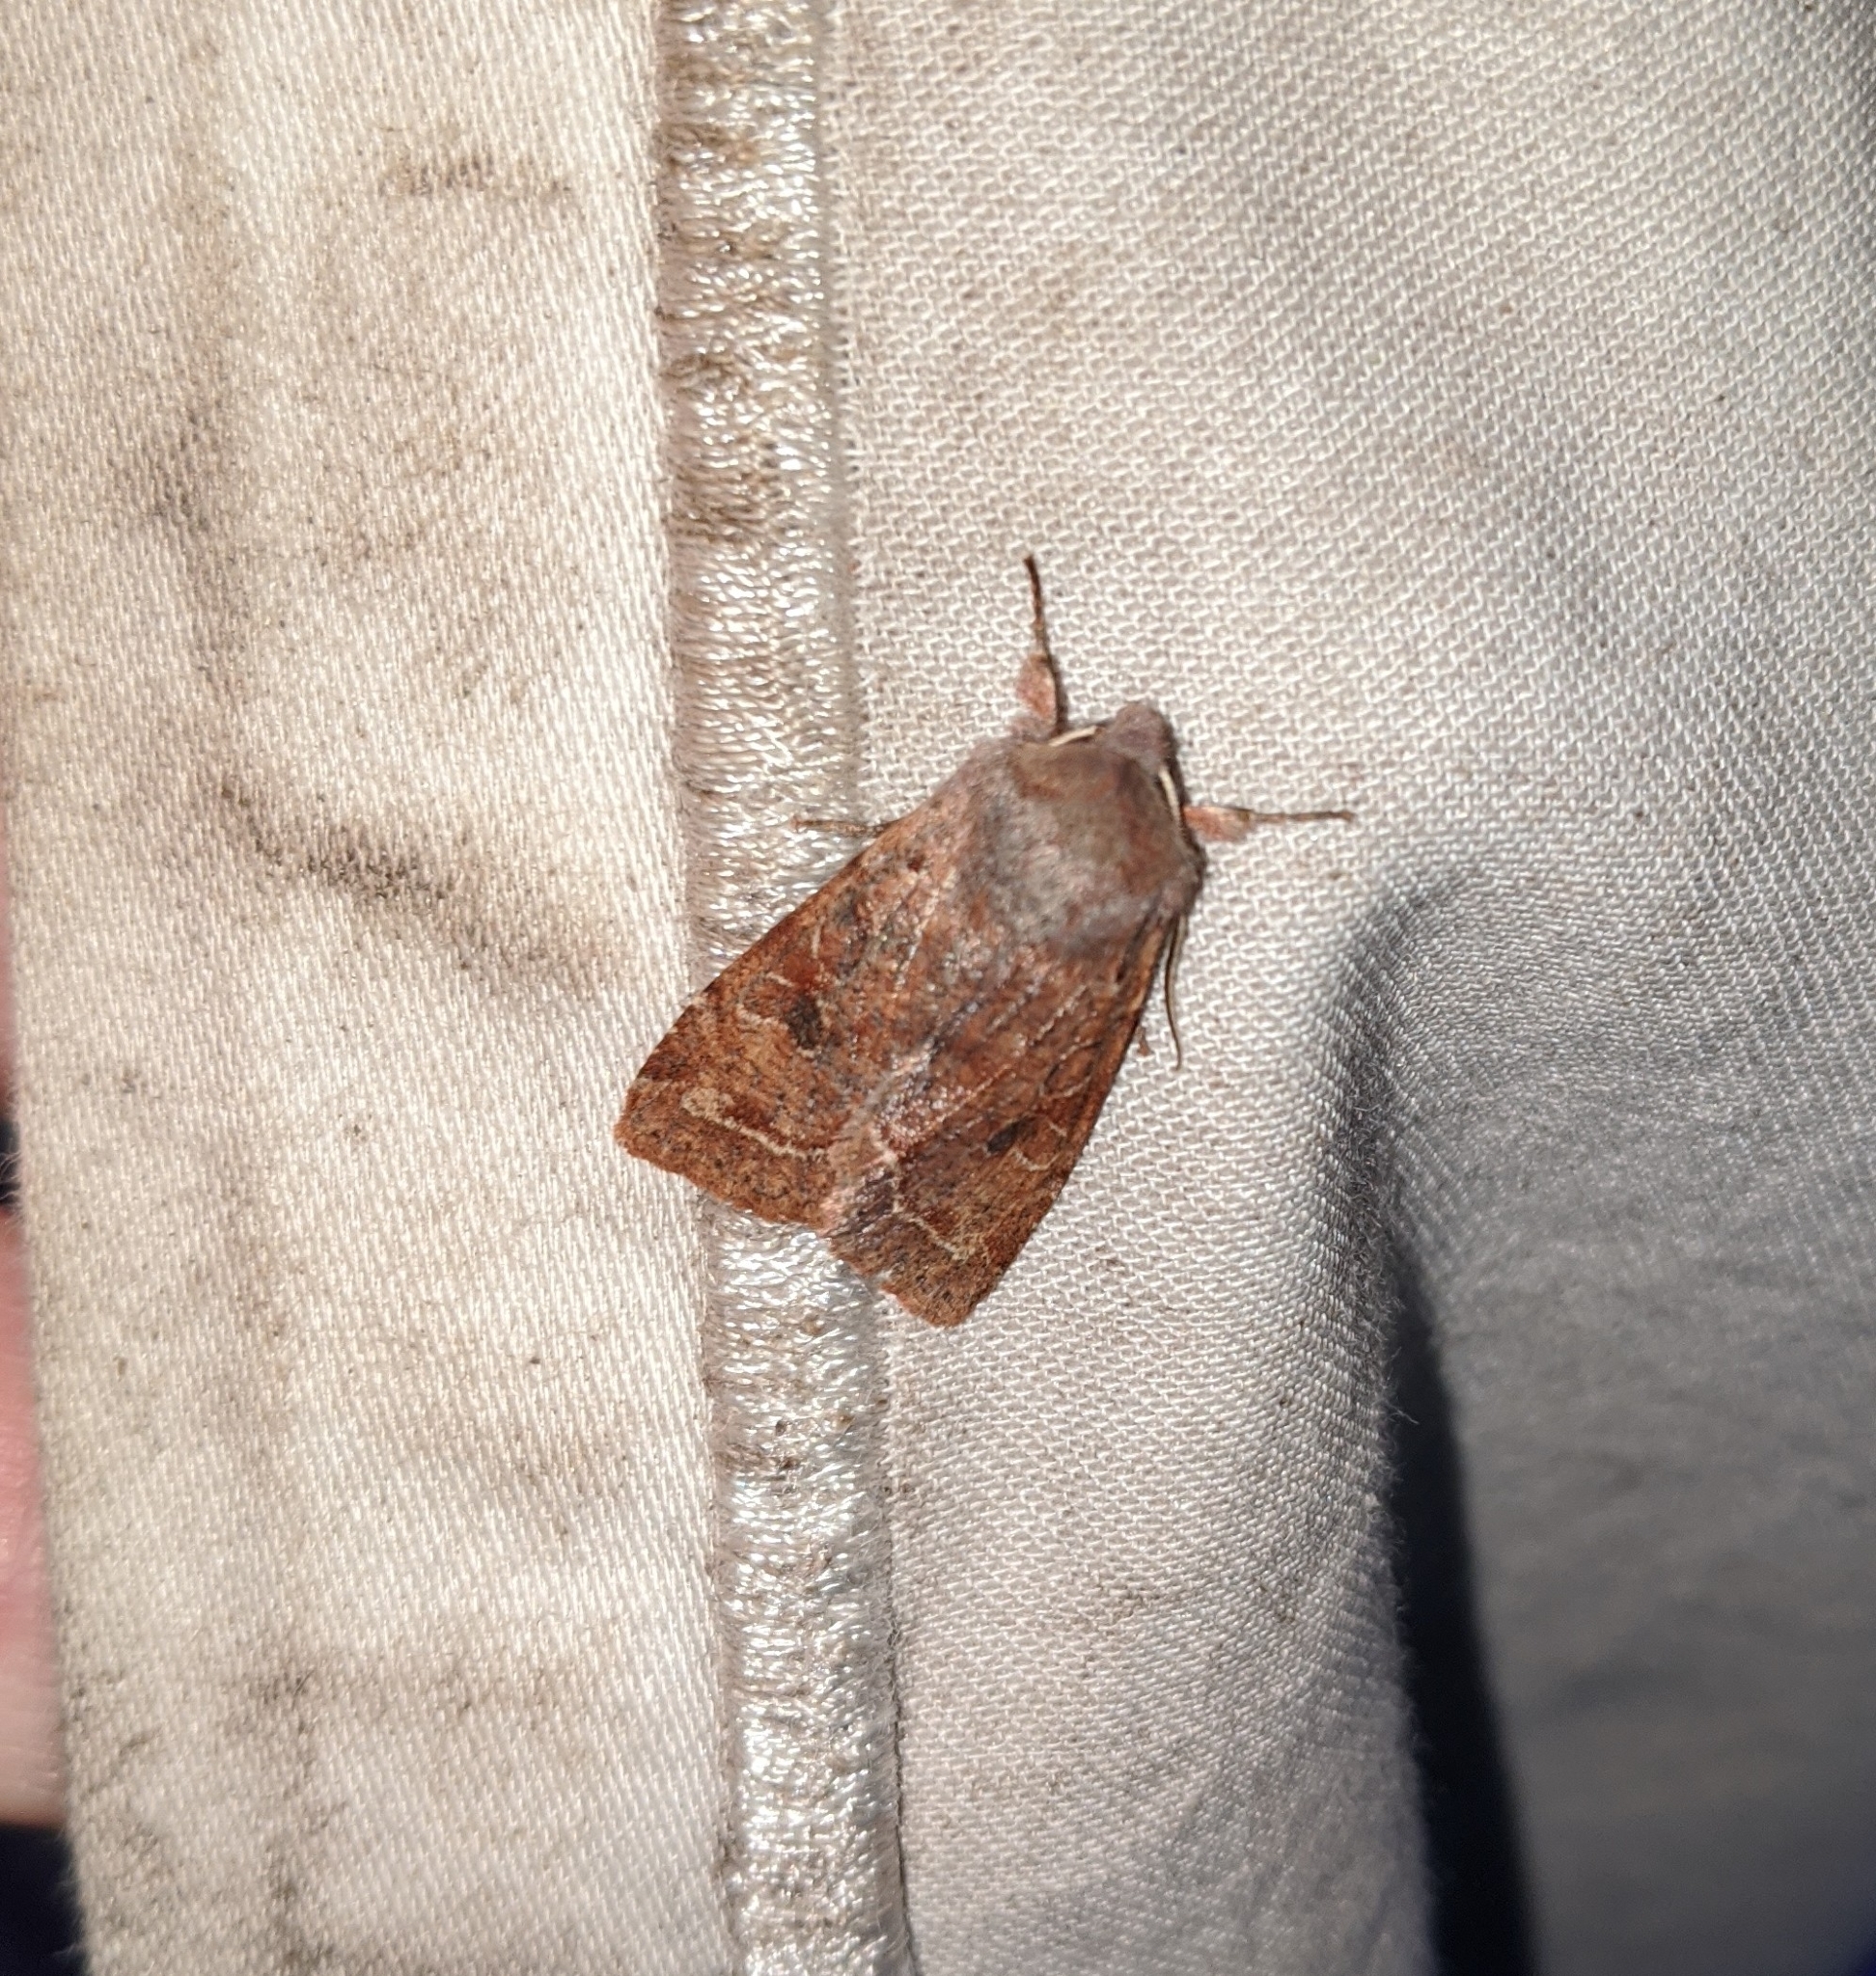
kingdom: Animalia
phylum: Arthropoda
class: Insecta
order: Lepidoptera
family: Noctuidae
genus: Orthosia
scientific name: Orthosia hibisci
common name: Green fruitworm
